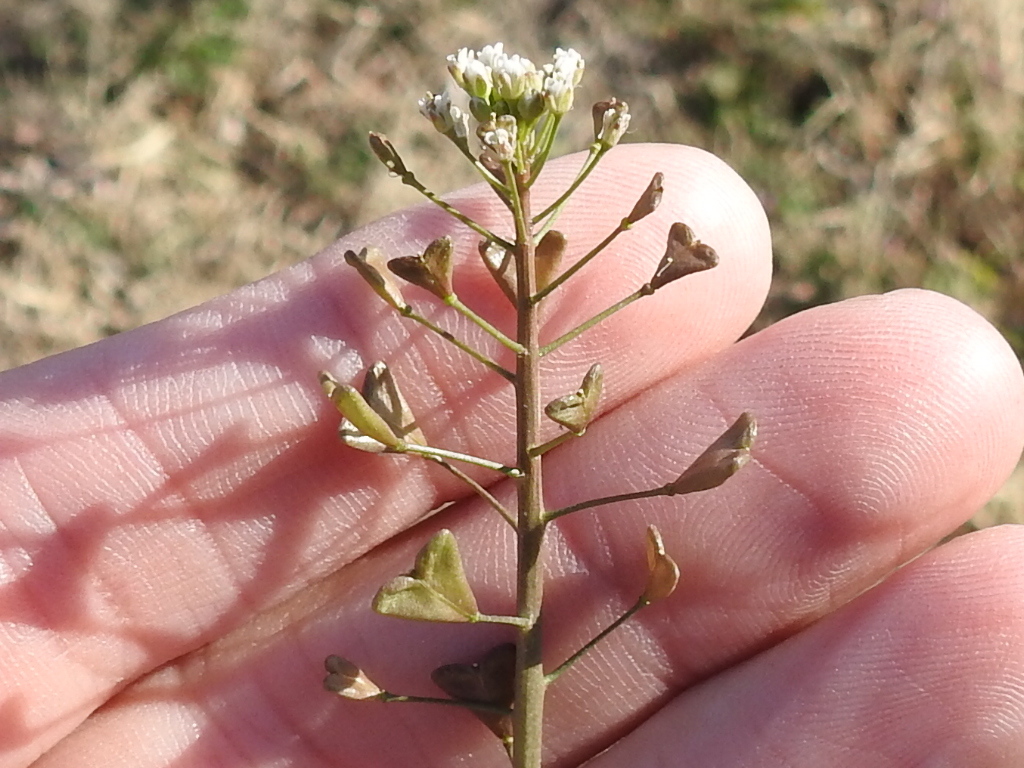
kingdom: Plantae
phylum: Tracheophyta
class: Magnoliopsida
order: Brassicales
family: Brassicaceae
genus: Capsella
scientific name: Capsella bursa-pastoris
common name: Shepherd's purse
